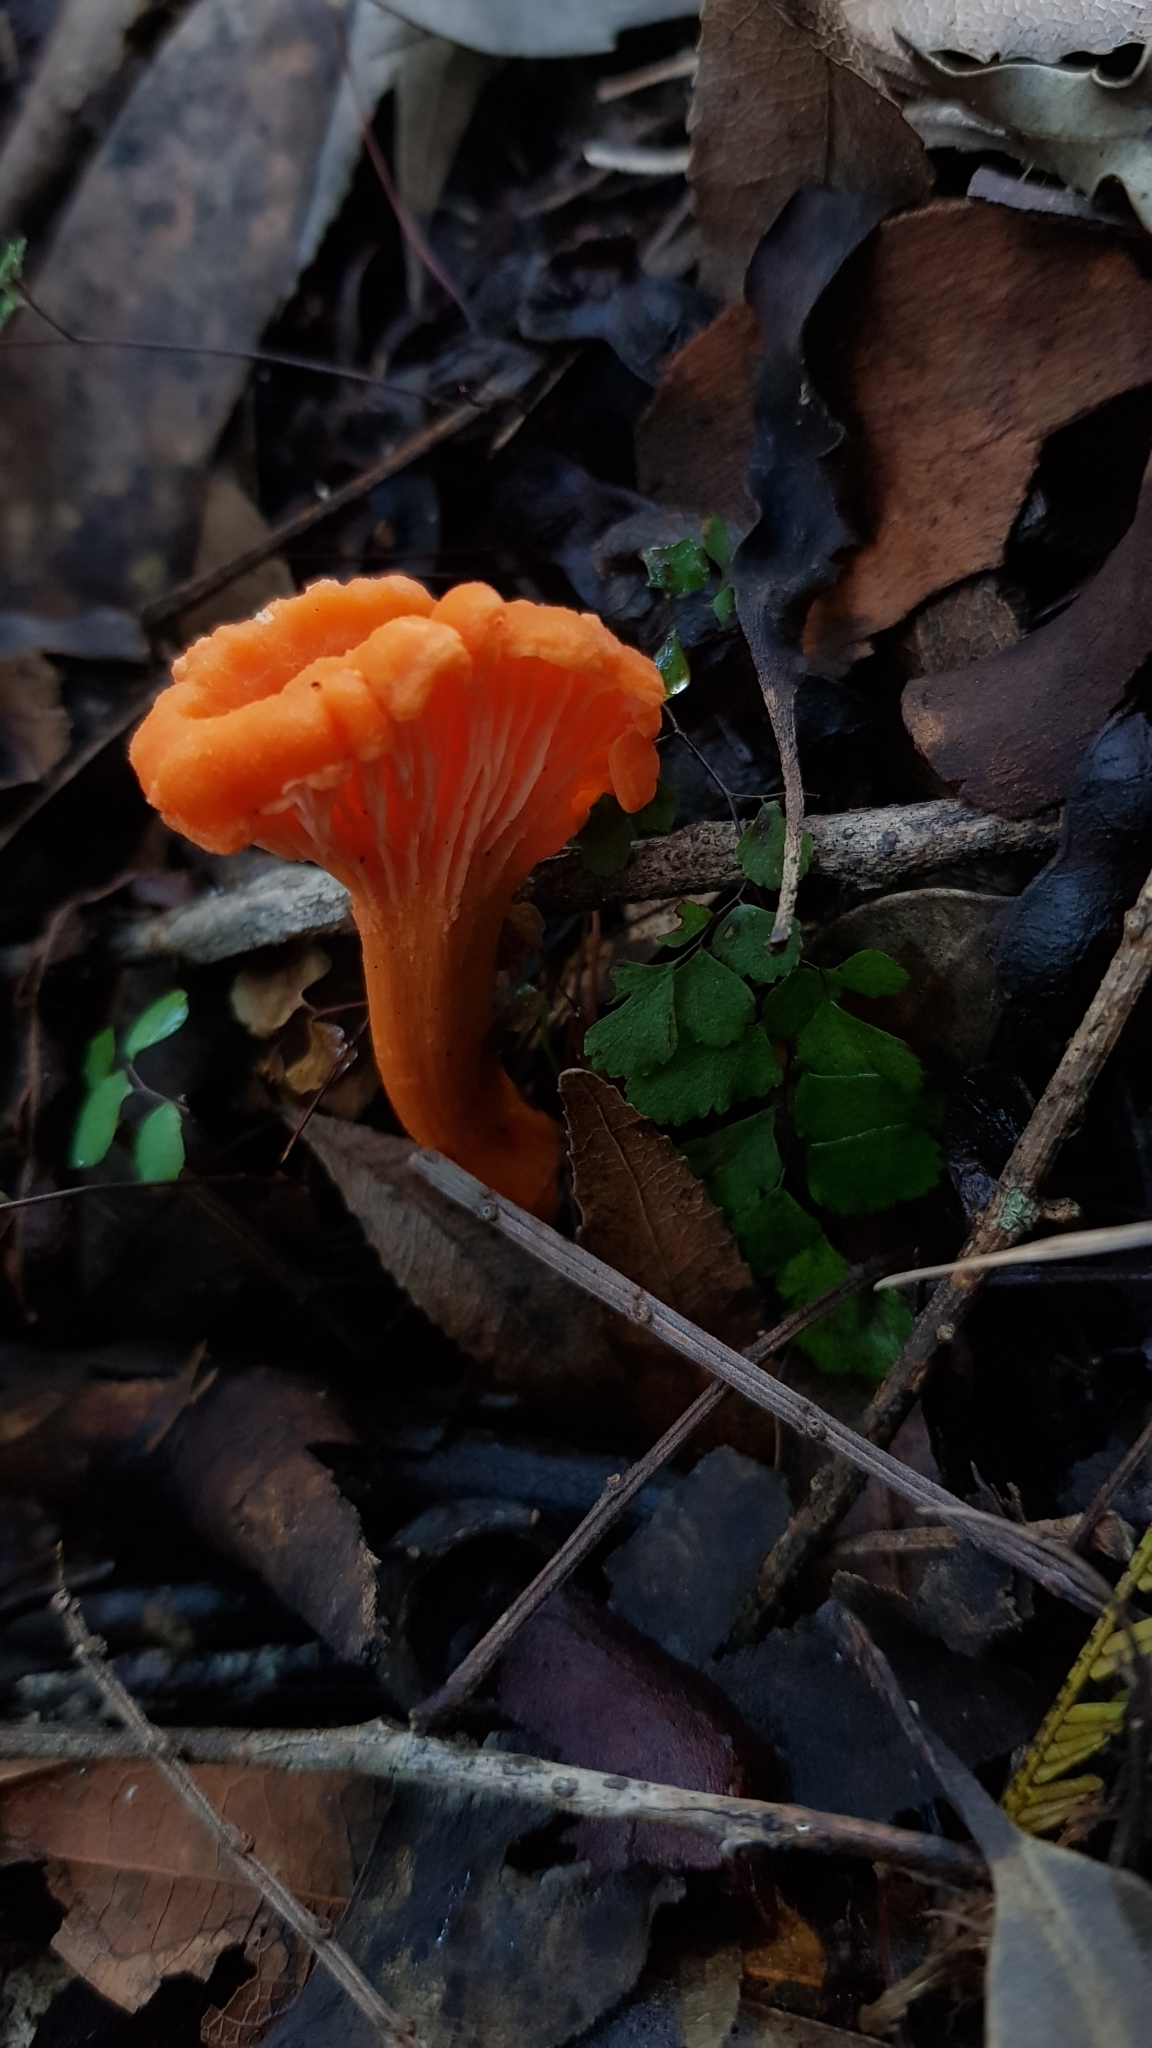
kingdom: Fungi
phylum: Basidiomycota
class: Agaricomycetes
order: Cantharellales
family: Hydnaceae
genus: Cantharellus
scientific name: Cantharellus
